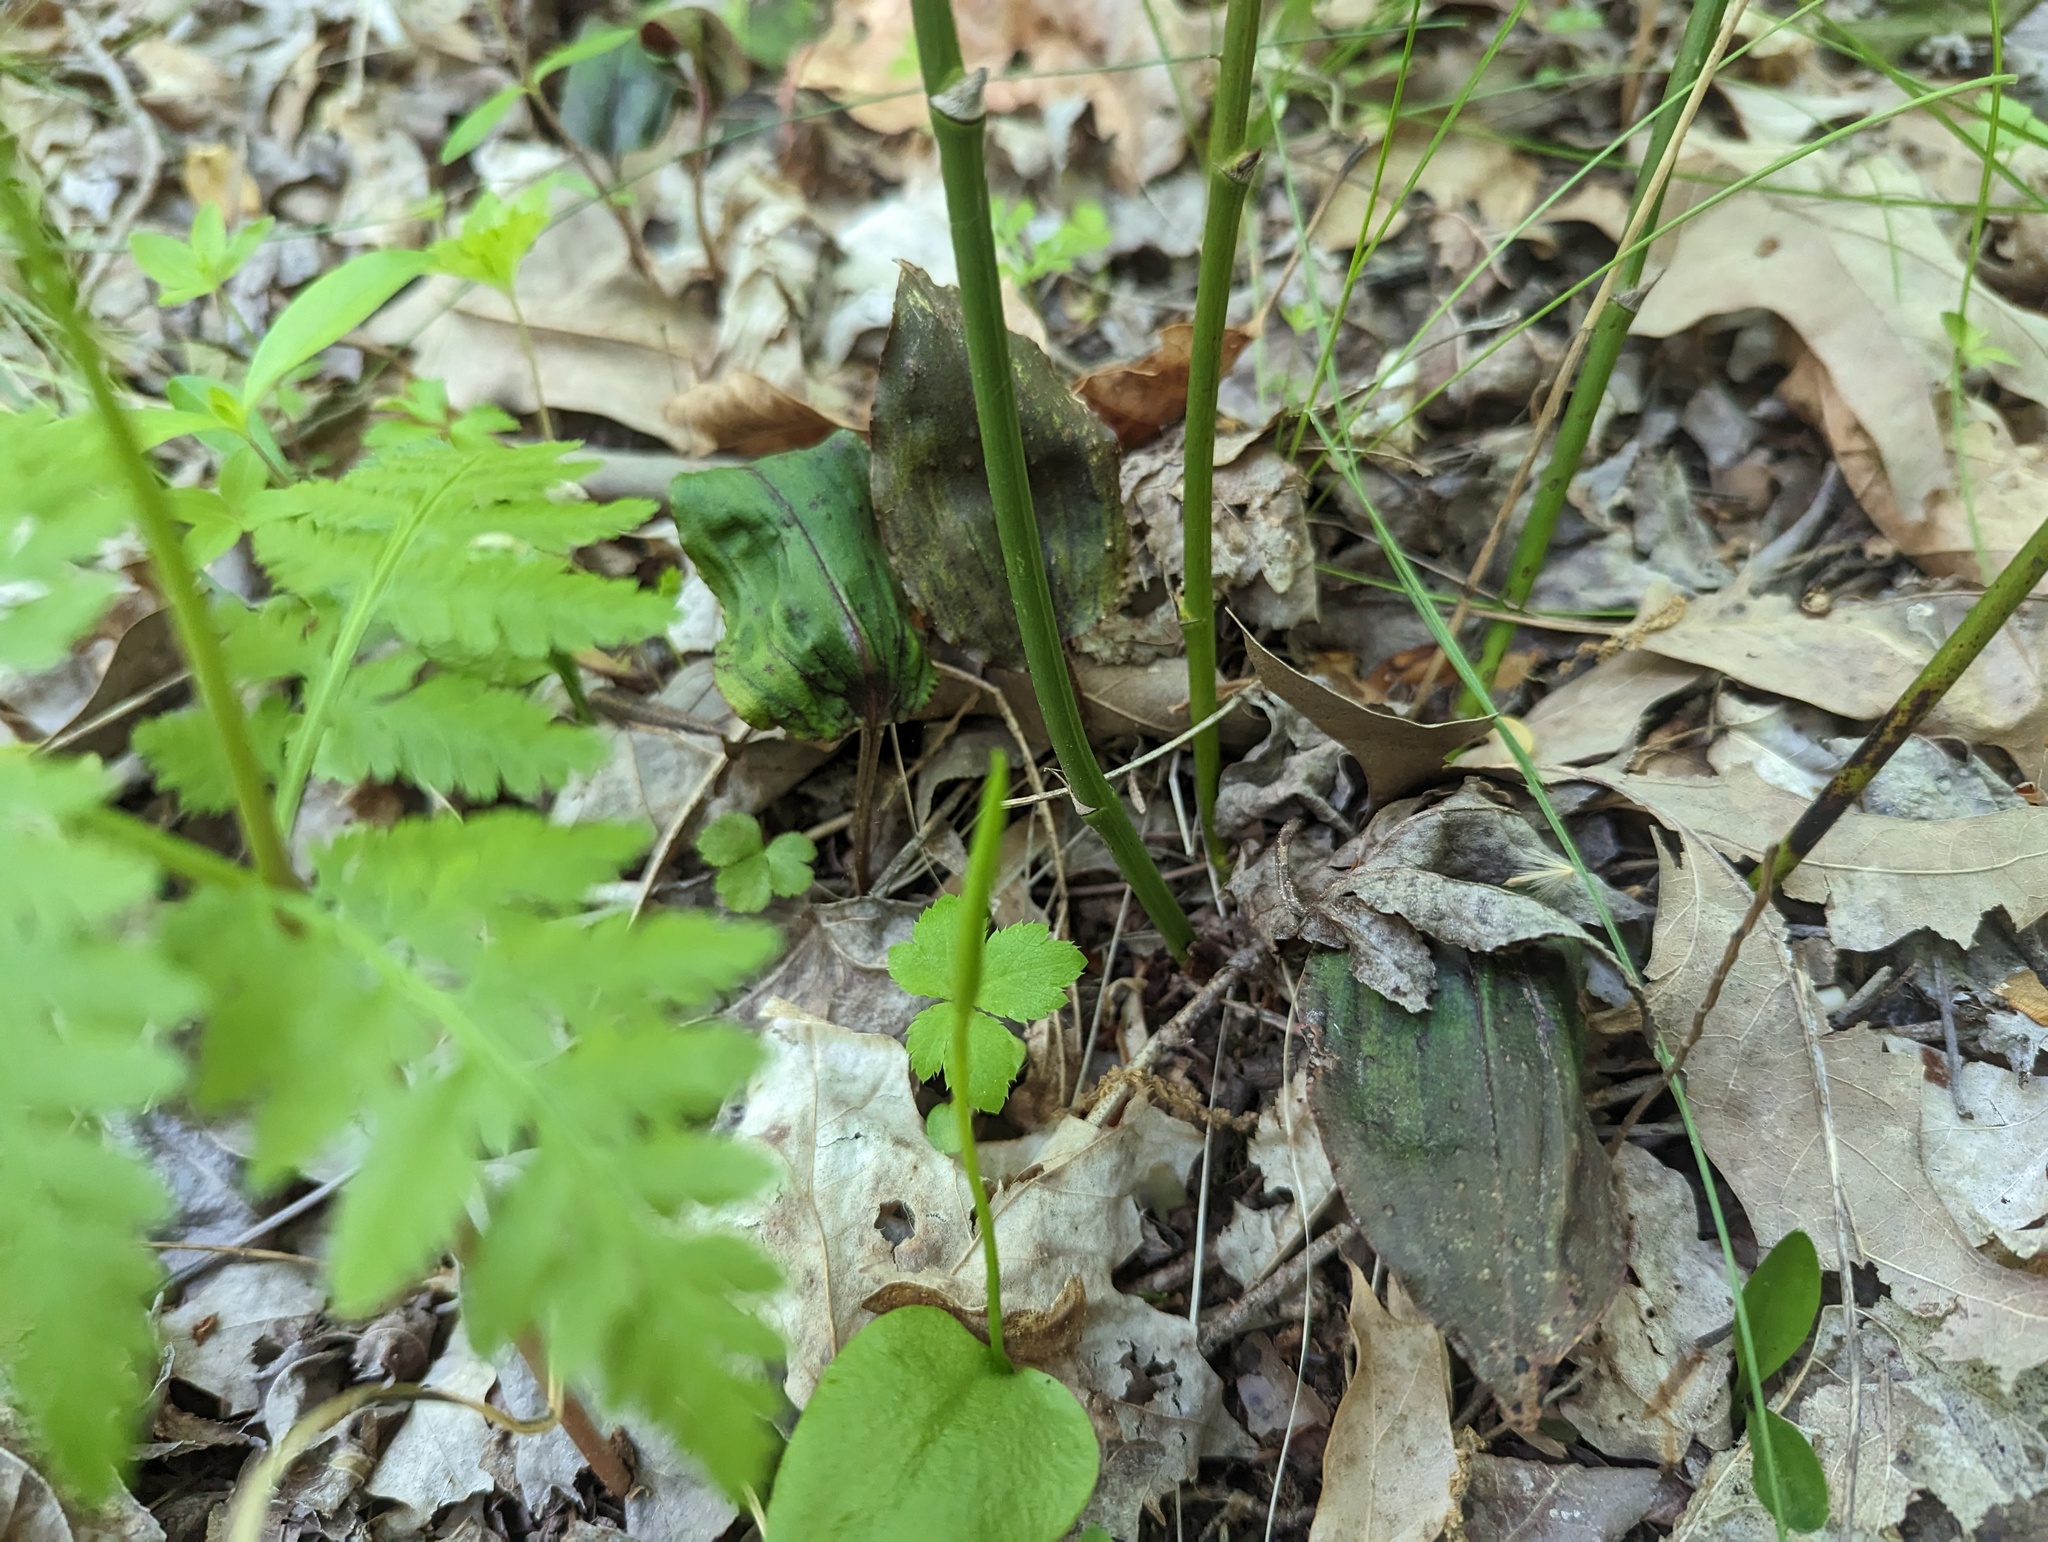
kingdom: Plantae
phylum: Tracheophyta
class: Liliopsida
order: Asparagales
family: Orchidaceae
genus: Tipularia
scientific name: Tipularia discolor
